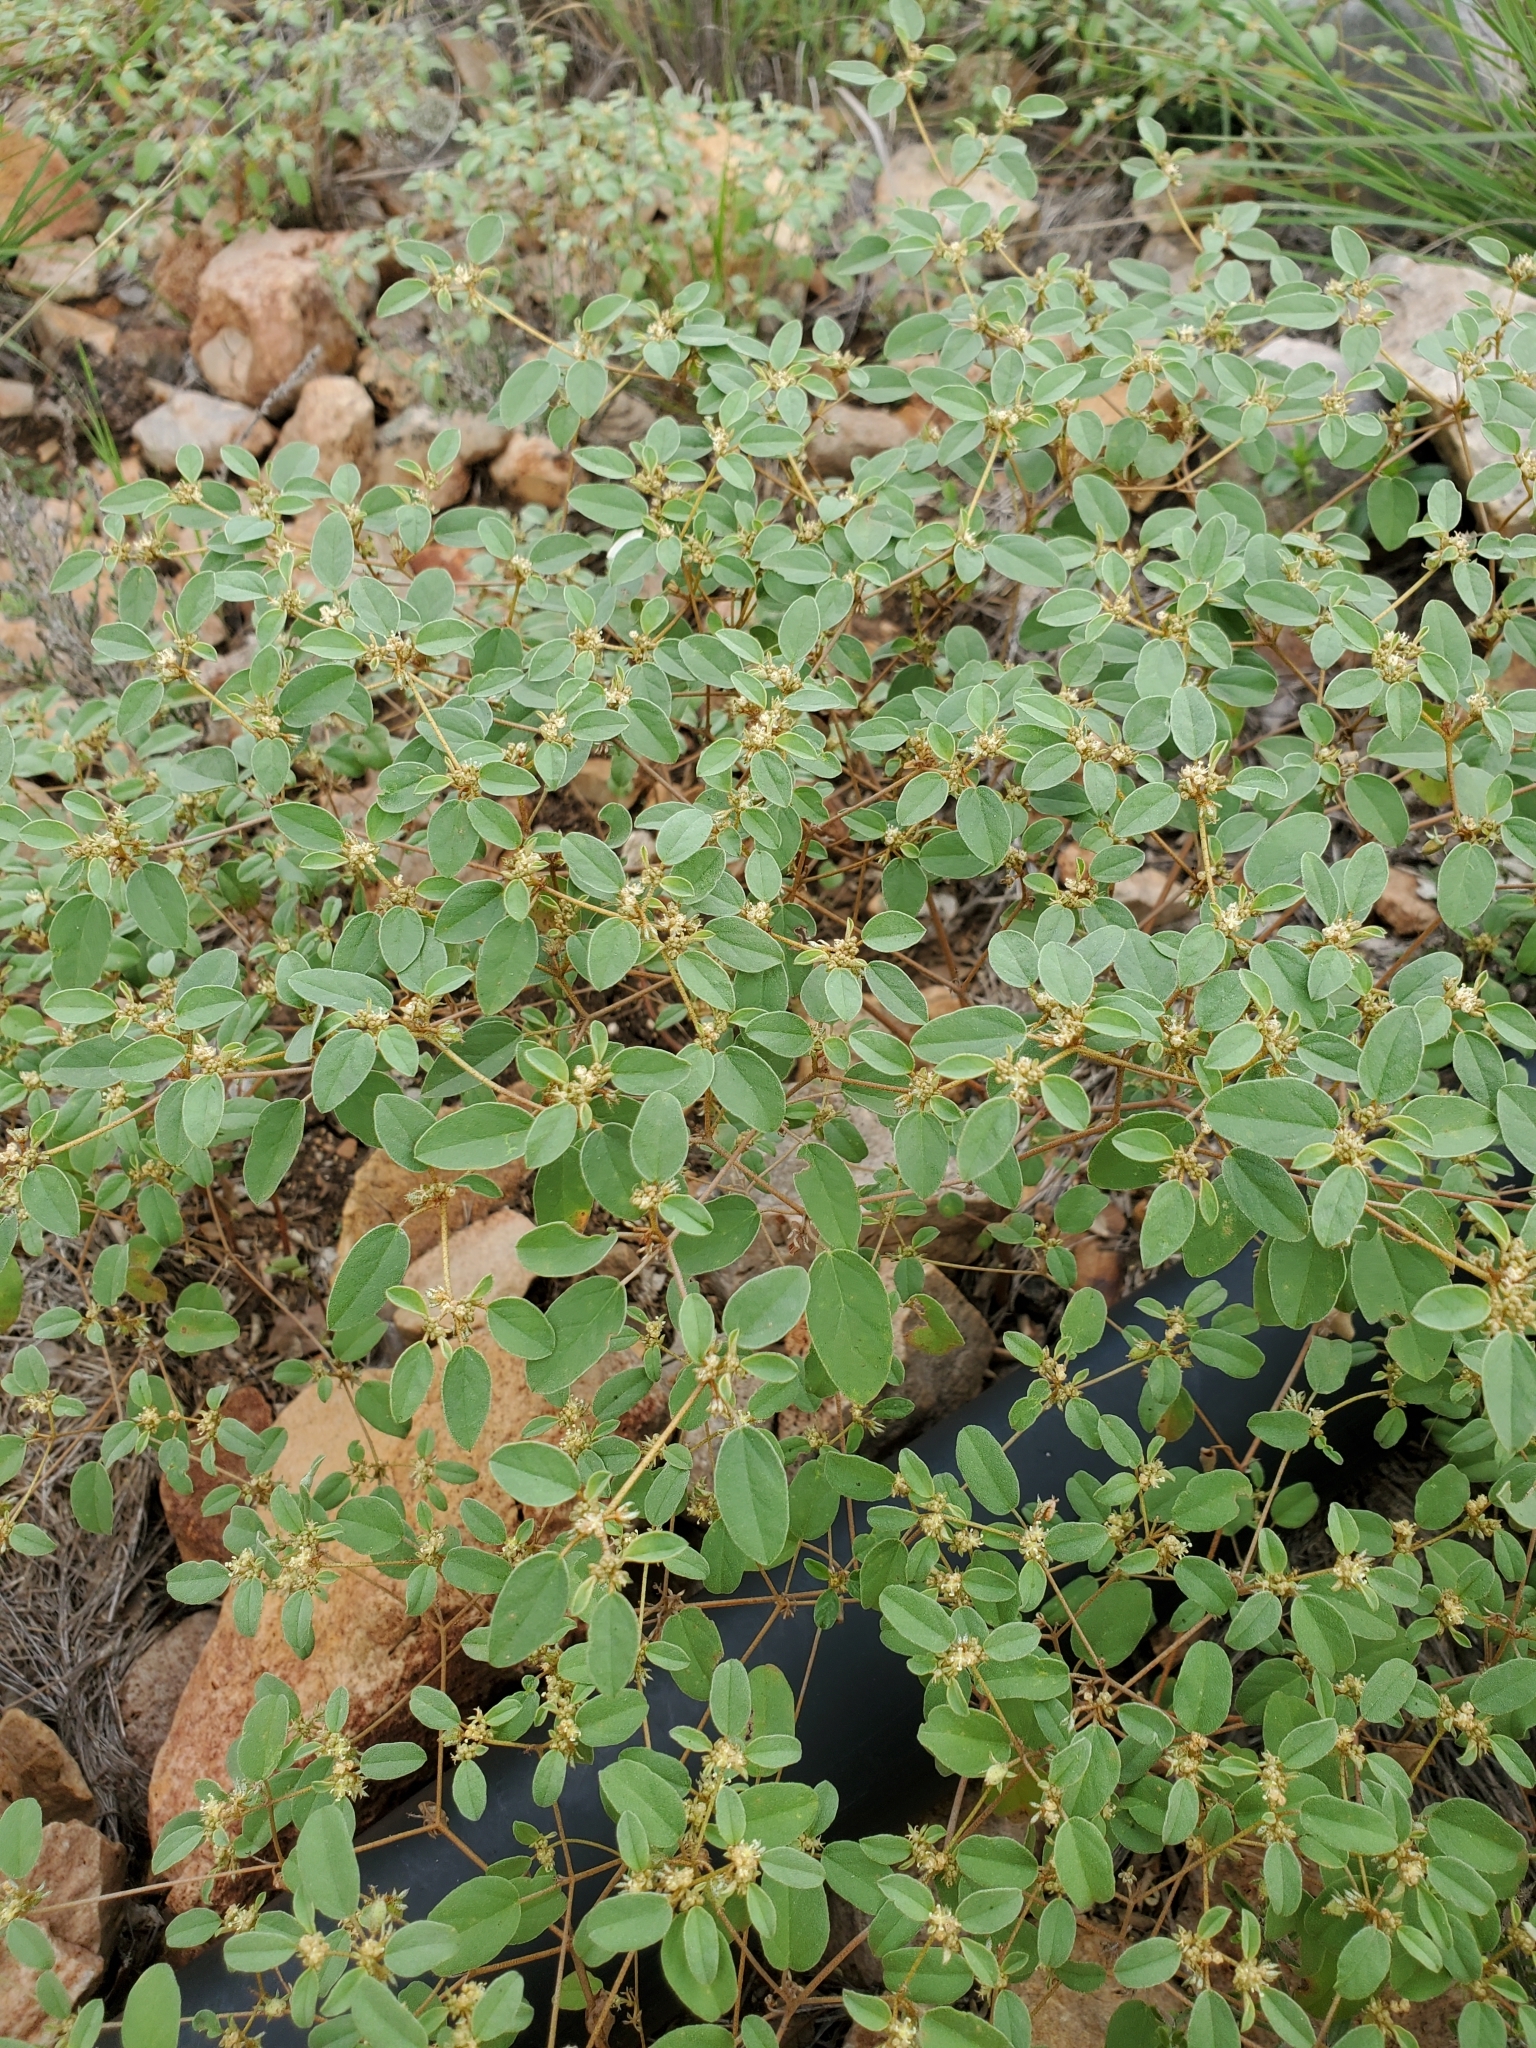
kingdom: Plantae
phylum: Tracheophyta
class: Magnoliopsida
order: Malpighiales
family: Euphorbiaceae
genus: Croton
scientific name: Croton monanthogynus
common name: One-seed croton
